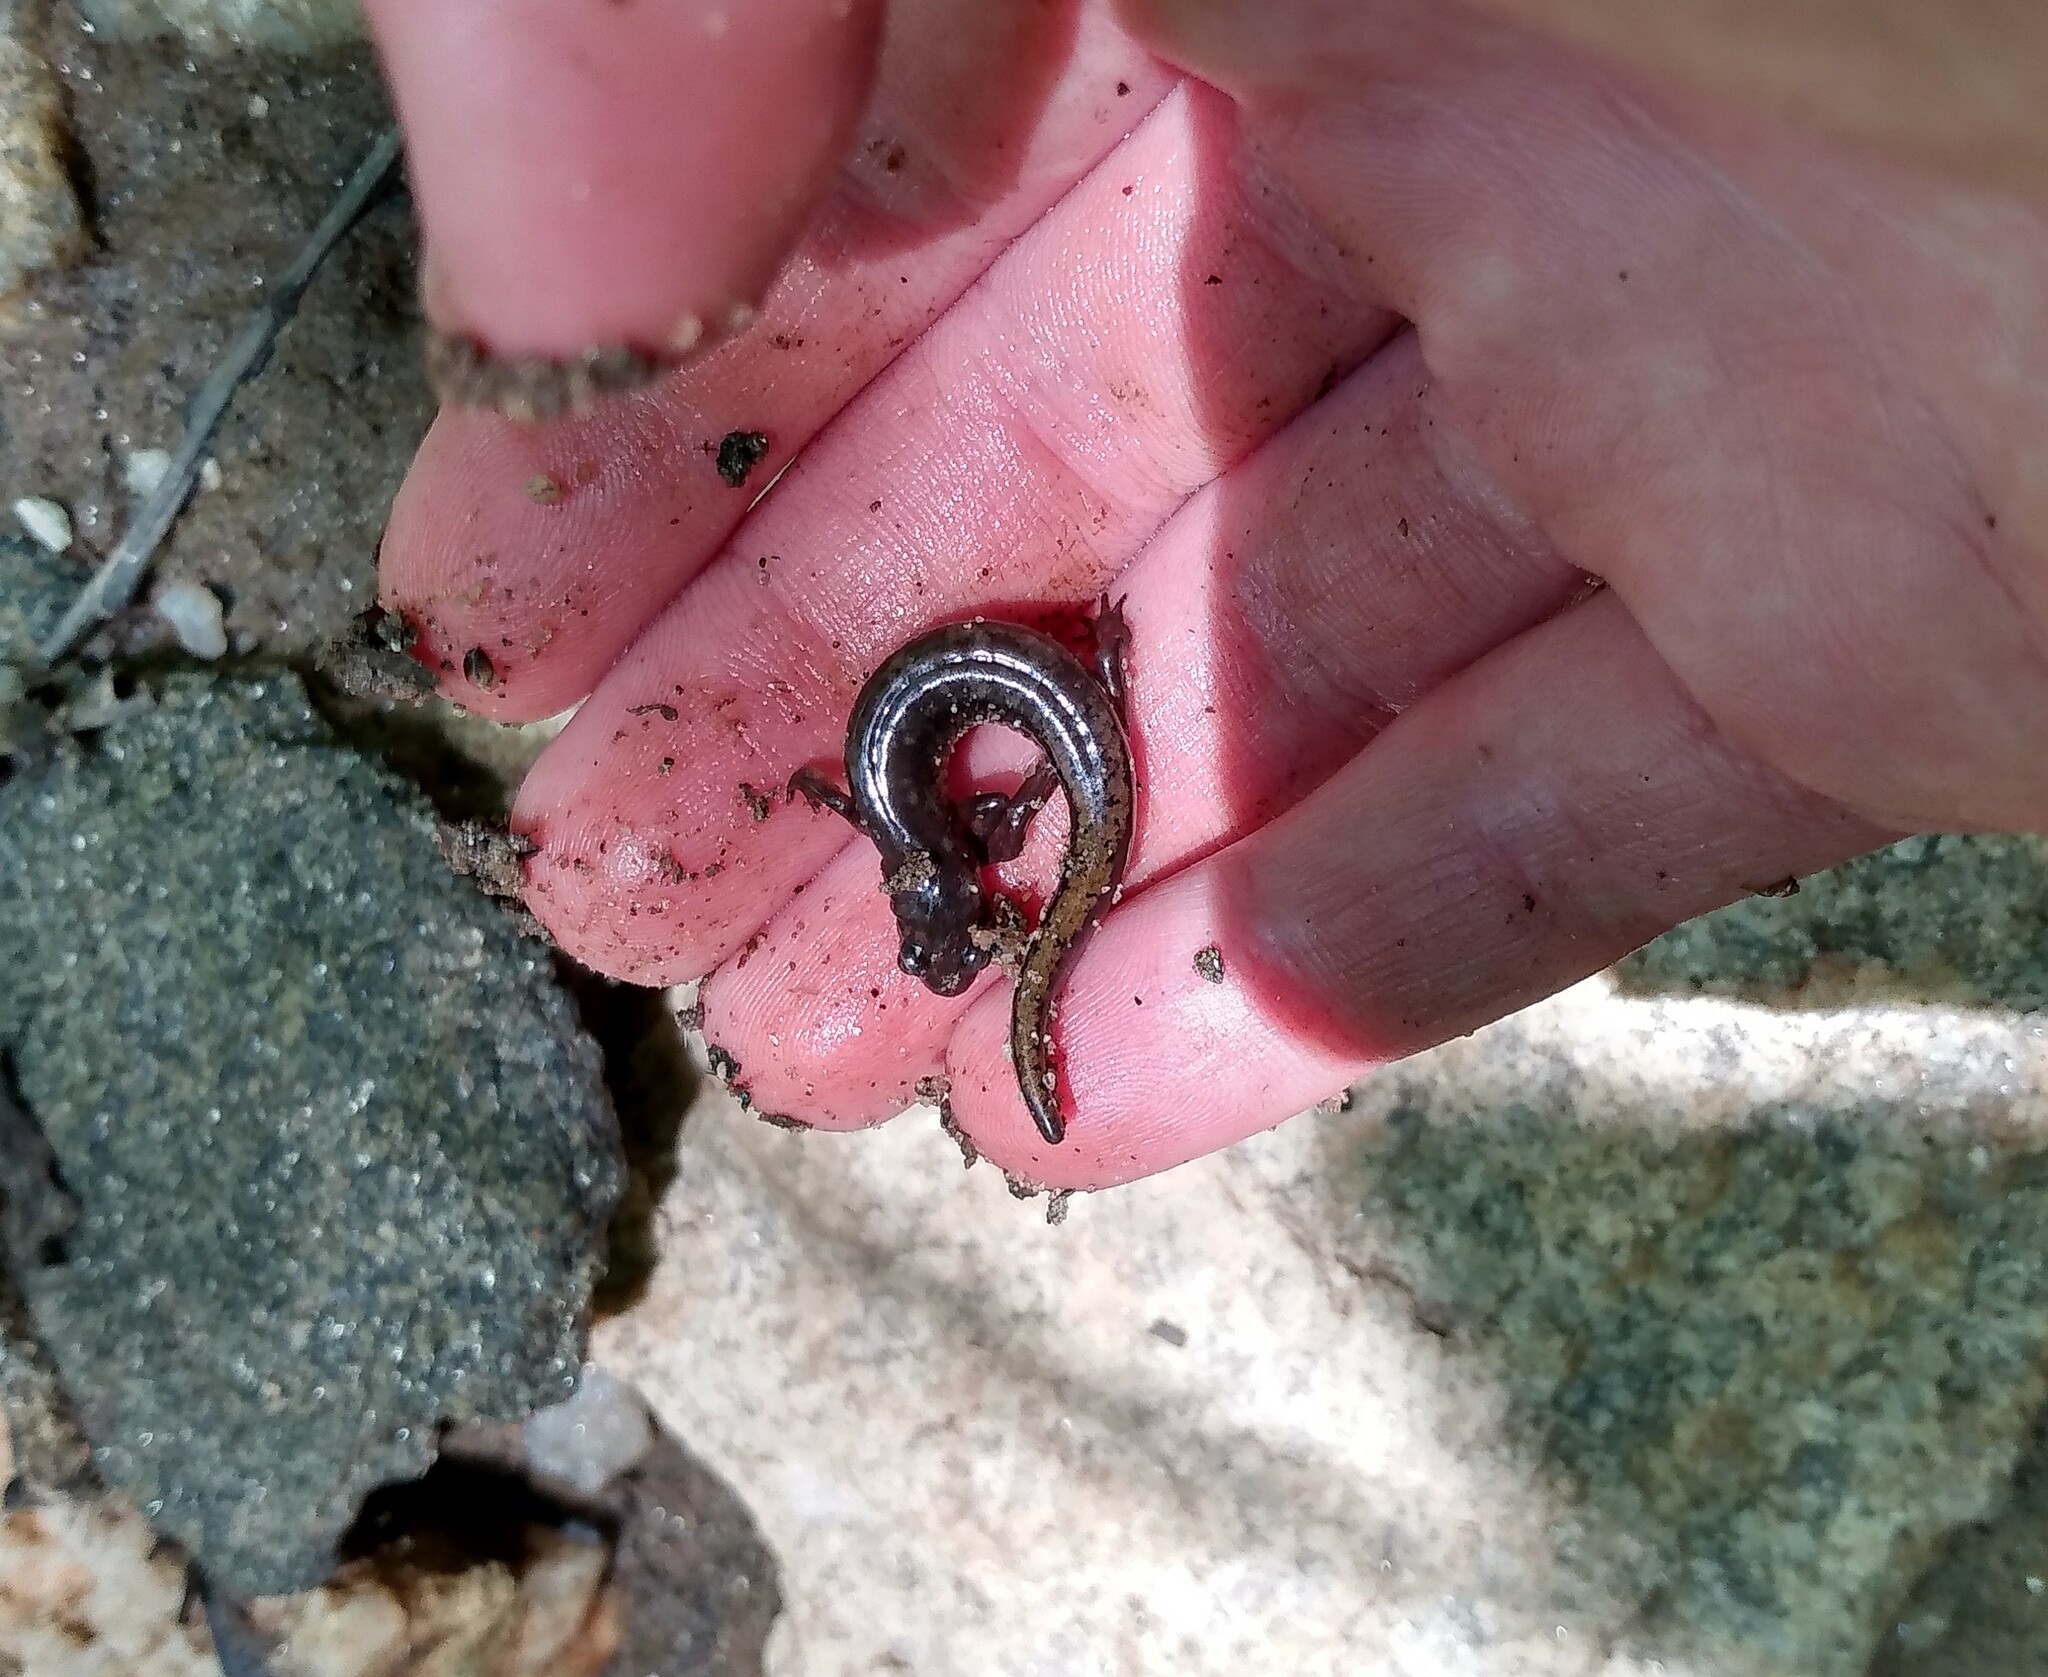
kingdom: Animalia
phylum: Chordata
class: Amphibia
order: Caudata
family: Plethodontidae
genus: Desmognathus
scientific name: Desmognathus conanti
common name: Spotted dusky salamander
